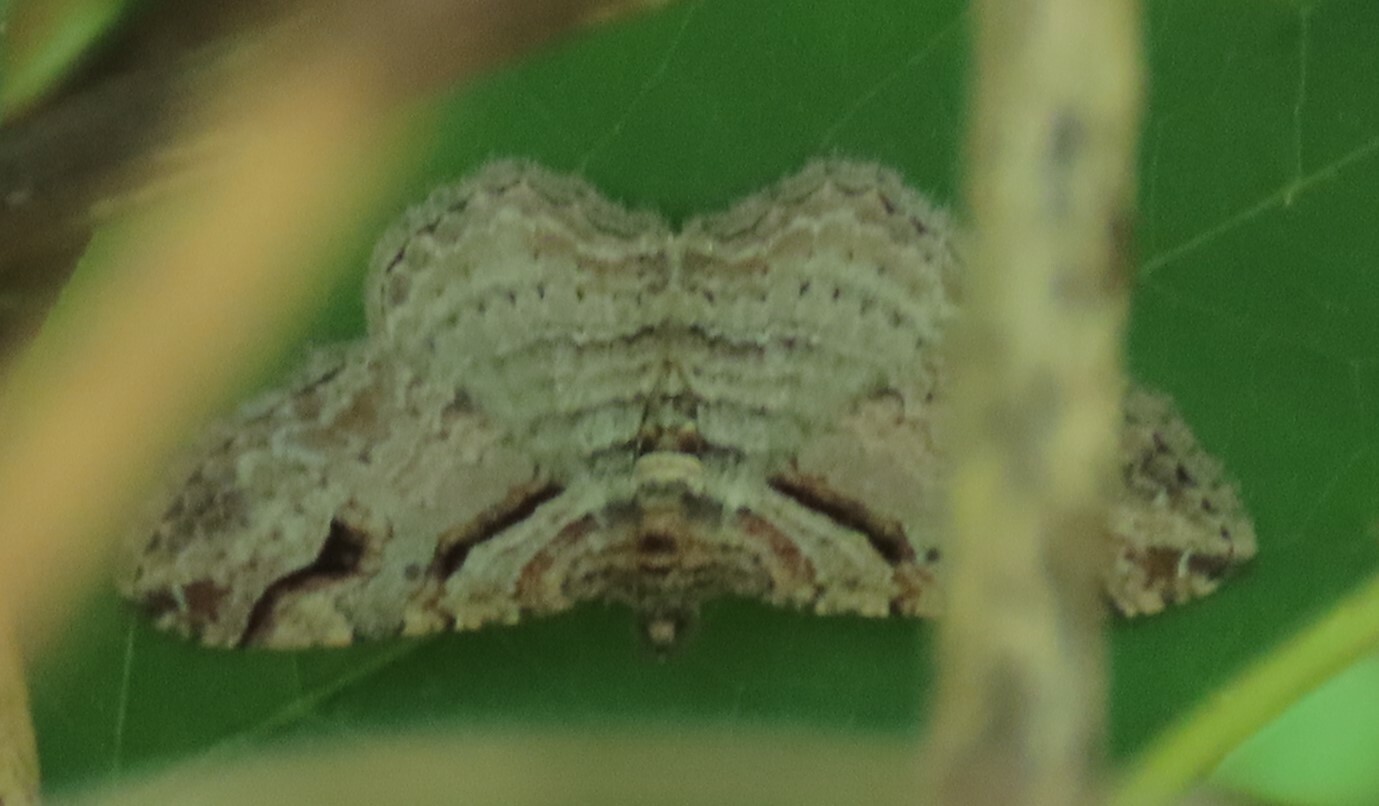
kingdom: Animalia
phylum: Arthropoda
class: Insecta
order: Lepidoptera
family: Geometridae
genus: Costaconvexa
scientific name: Costaconvexa centrostrigaria
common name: Bent-line carpet
